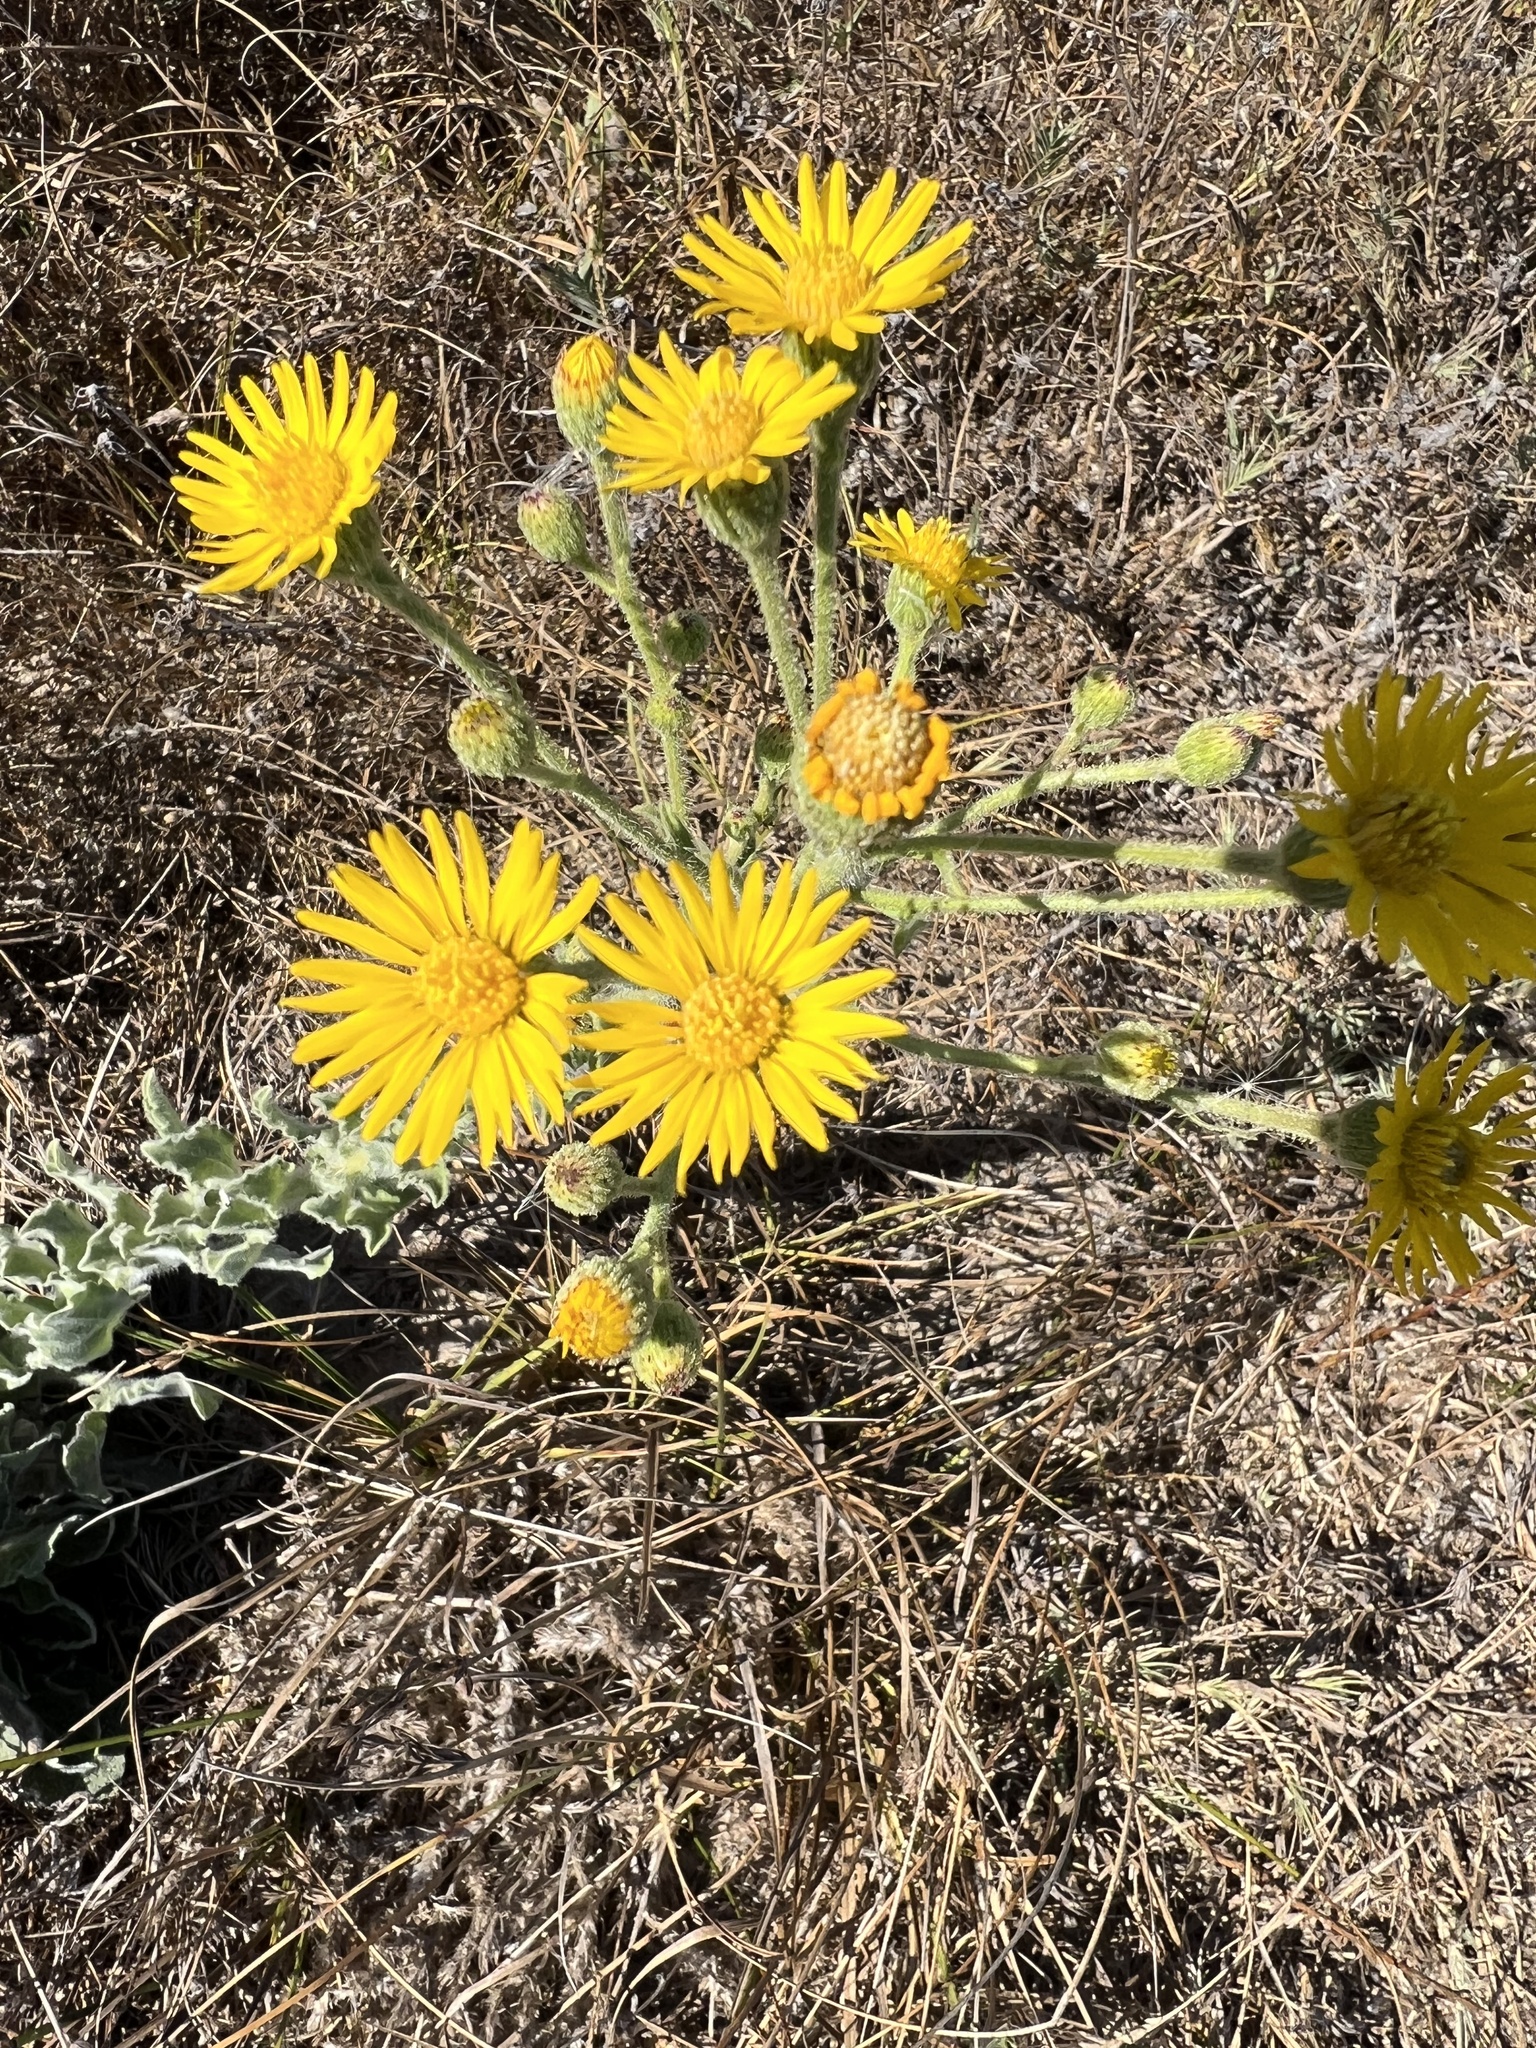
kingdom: Plantae
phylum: Tracheophyta
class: Magnoliopsida
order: Asterales
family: Asteraceae
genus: Heterotheca
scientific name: Heterotheca grandiflora
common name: Telegraphweed
